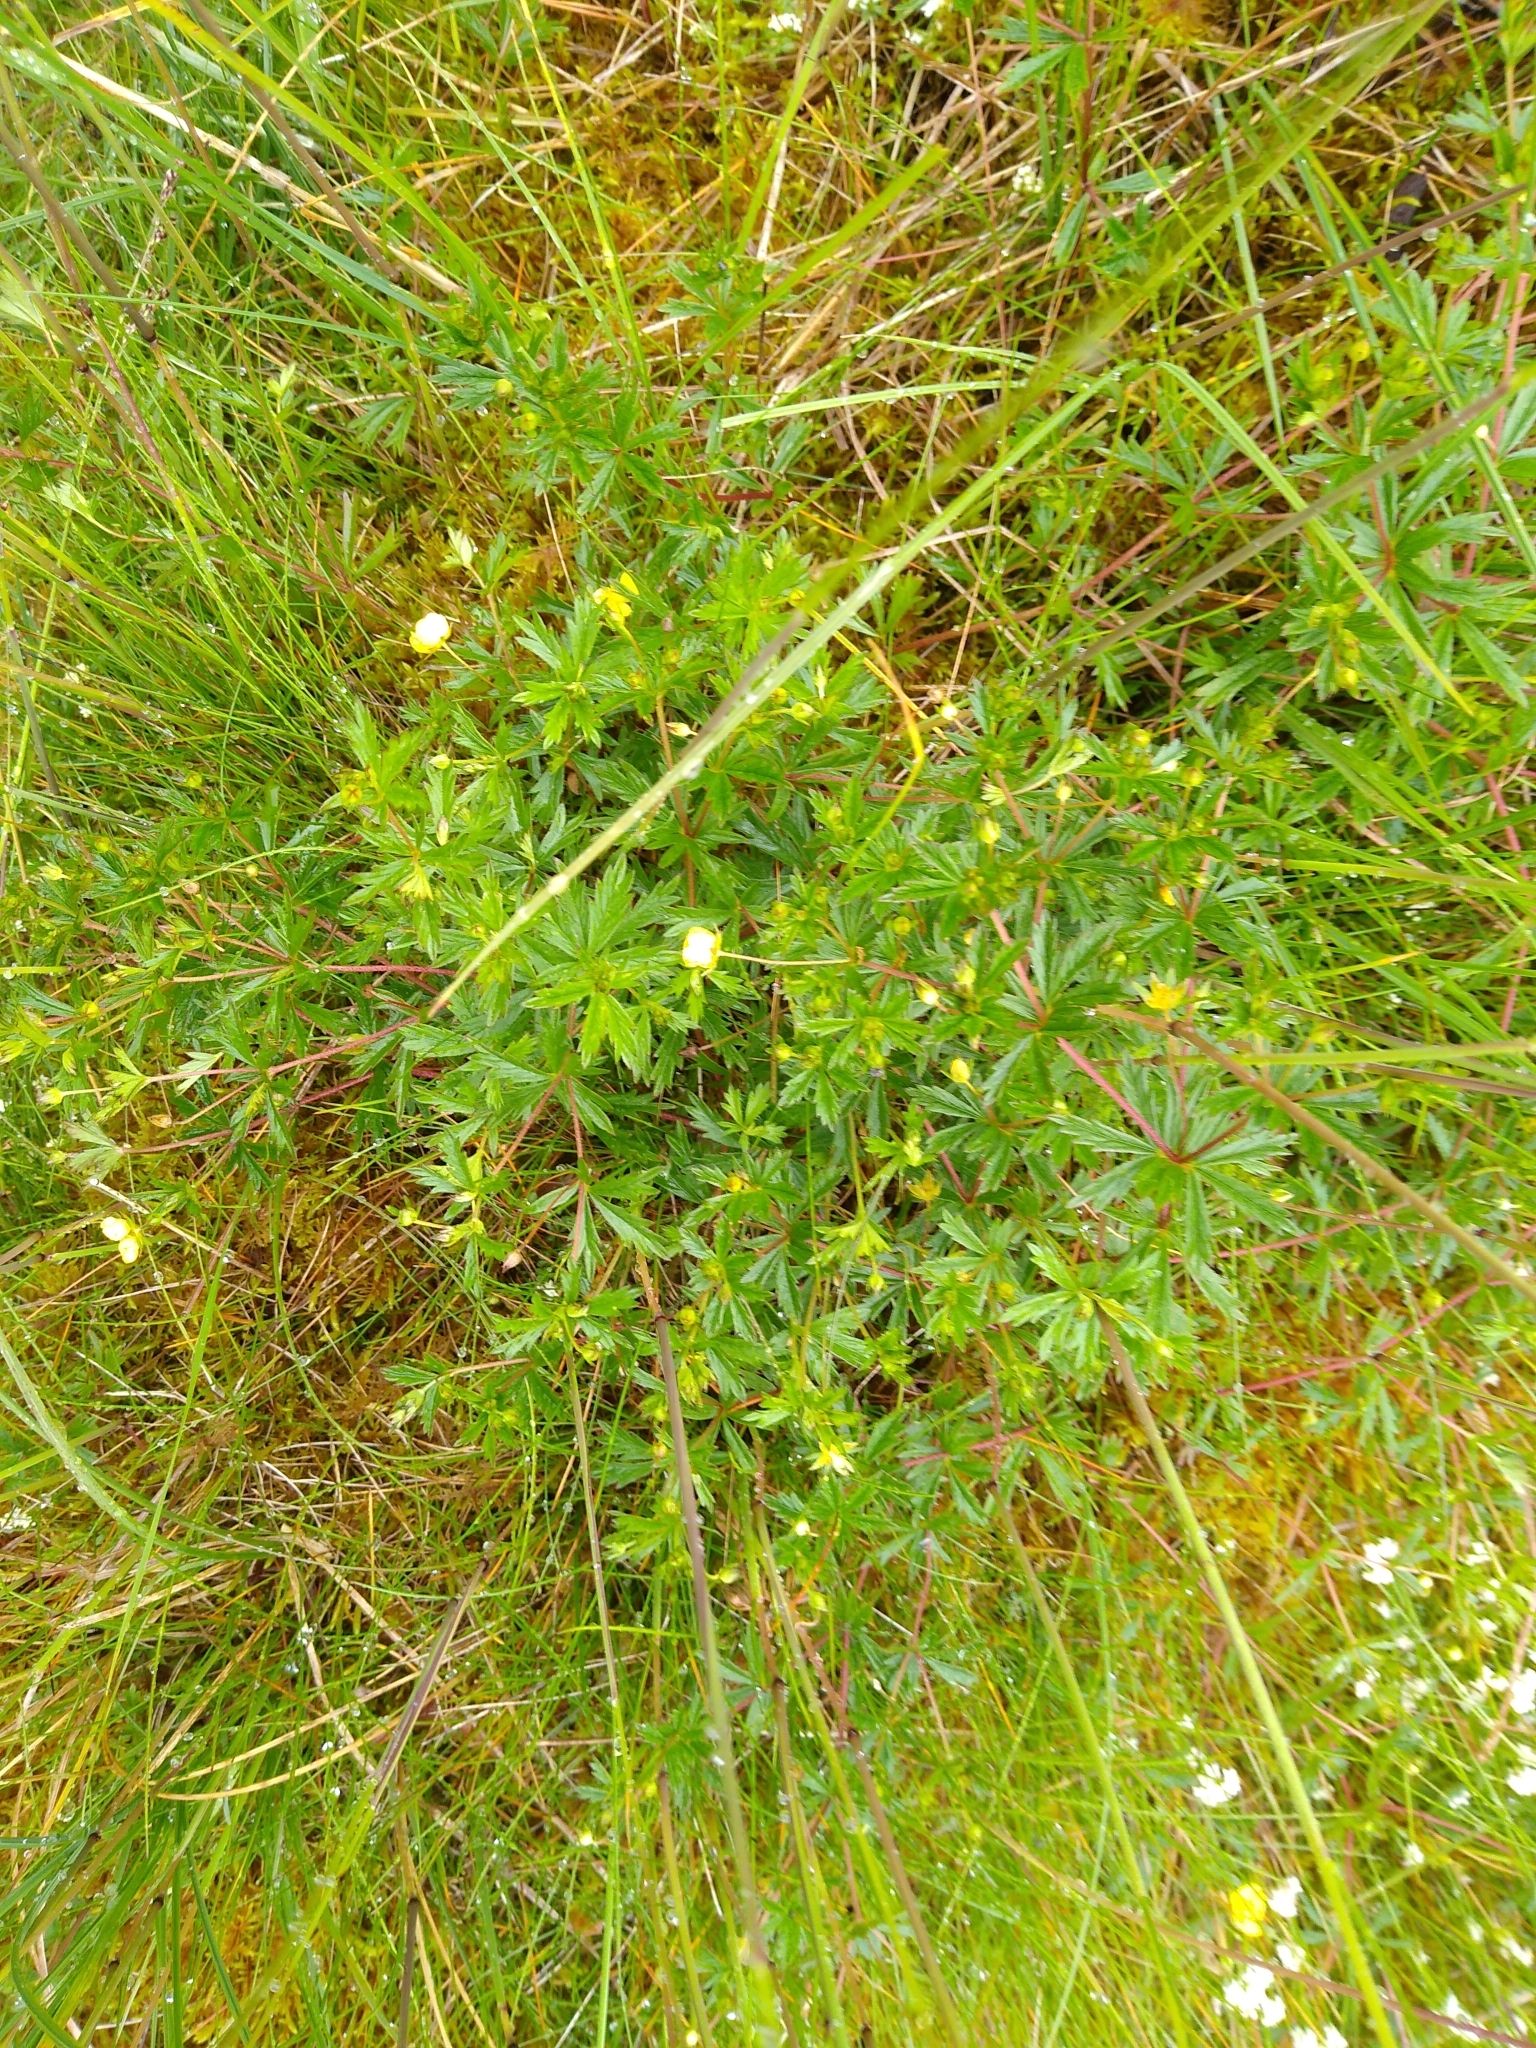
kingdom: Plantae
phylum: Tracheophyta
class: Magnoliopsida
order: Rosales
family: Rosaceae
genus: Potentilla
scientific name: Potentilla erecta
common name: Tormentil
